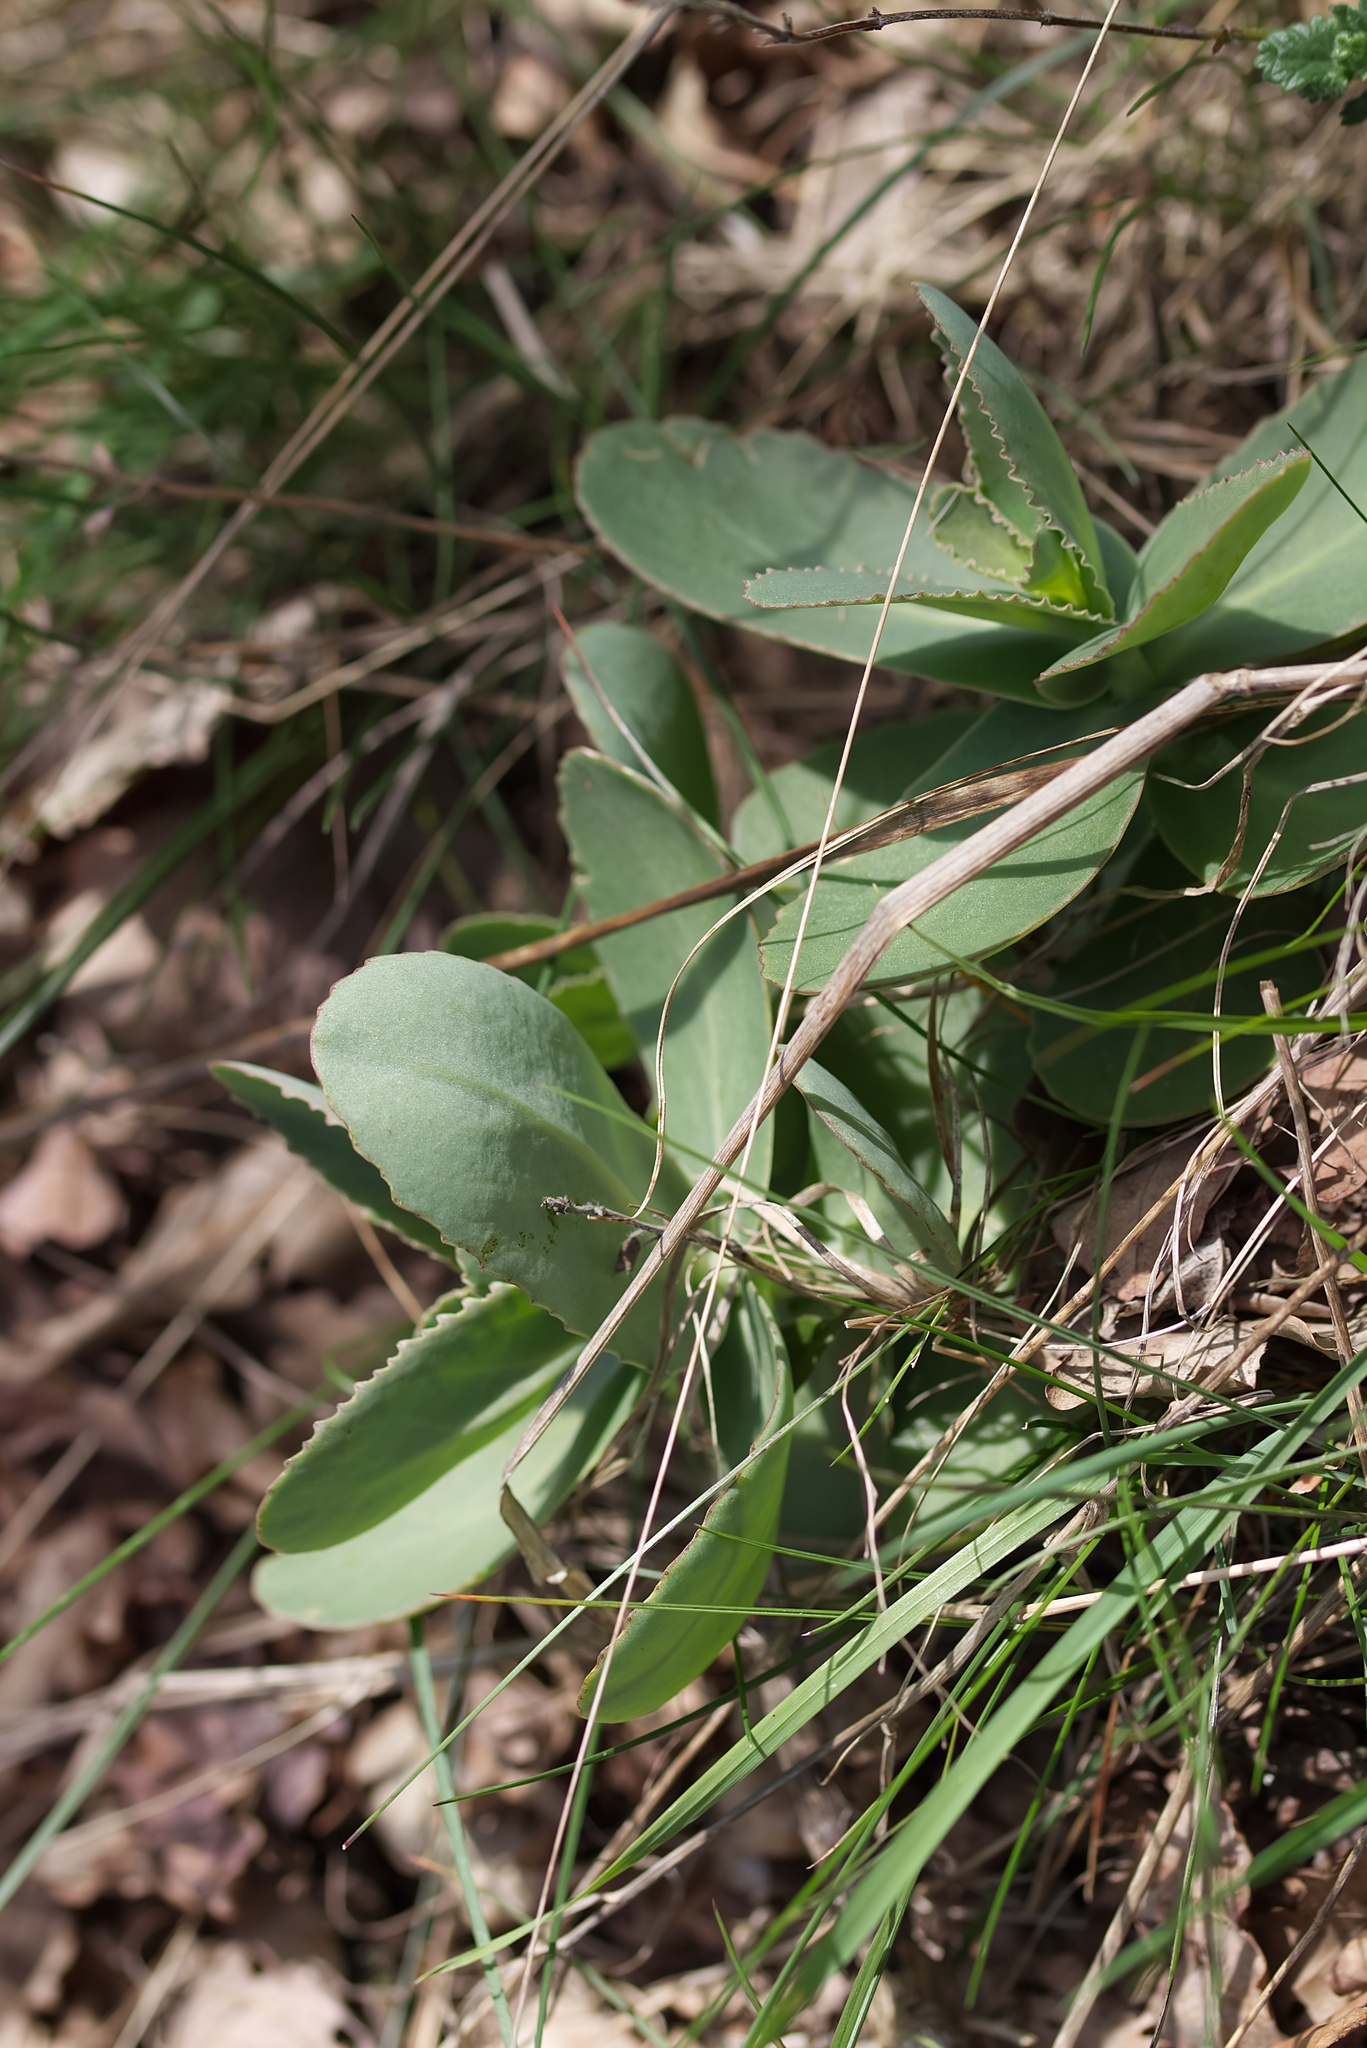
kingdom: Plantae
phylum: Tracheophyta
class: Magnoliopsida
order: Saxifragales
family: Crassulaceae
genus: Hylotelephium
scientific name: Hylotelephium maximum
